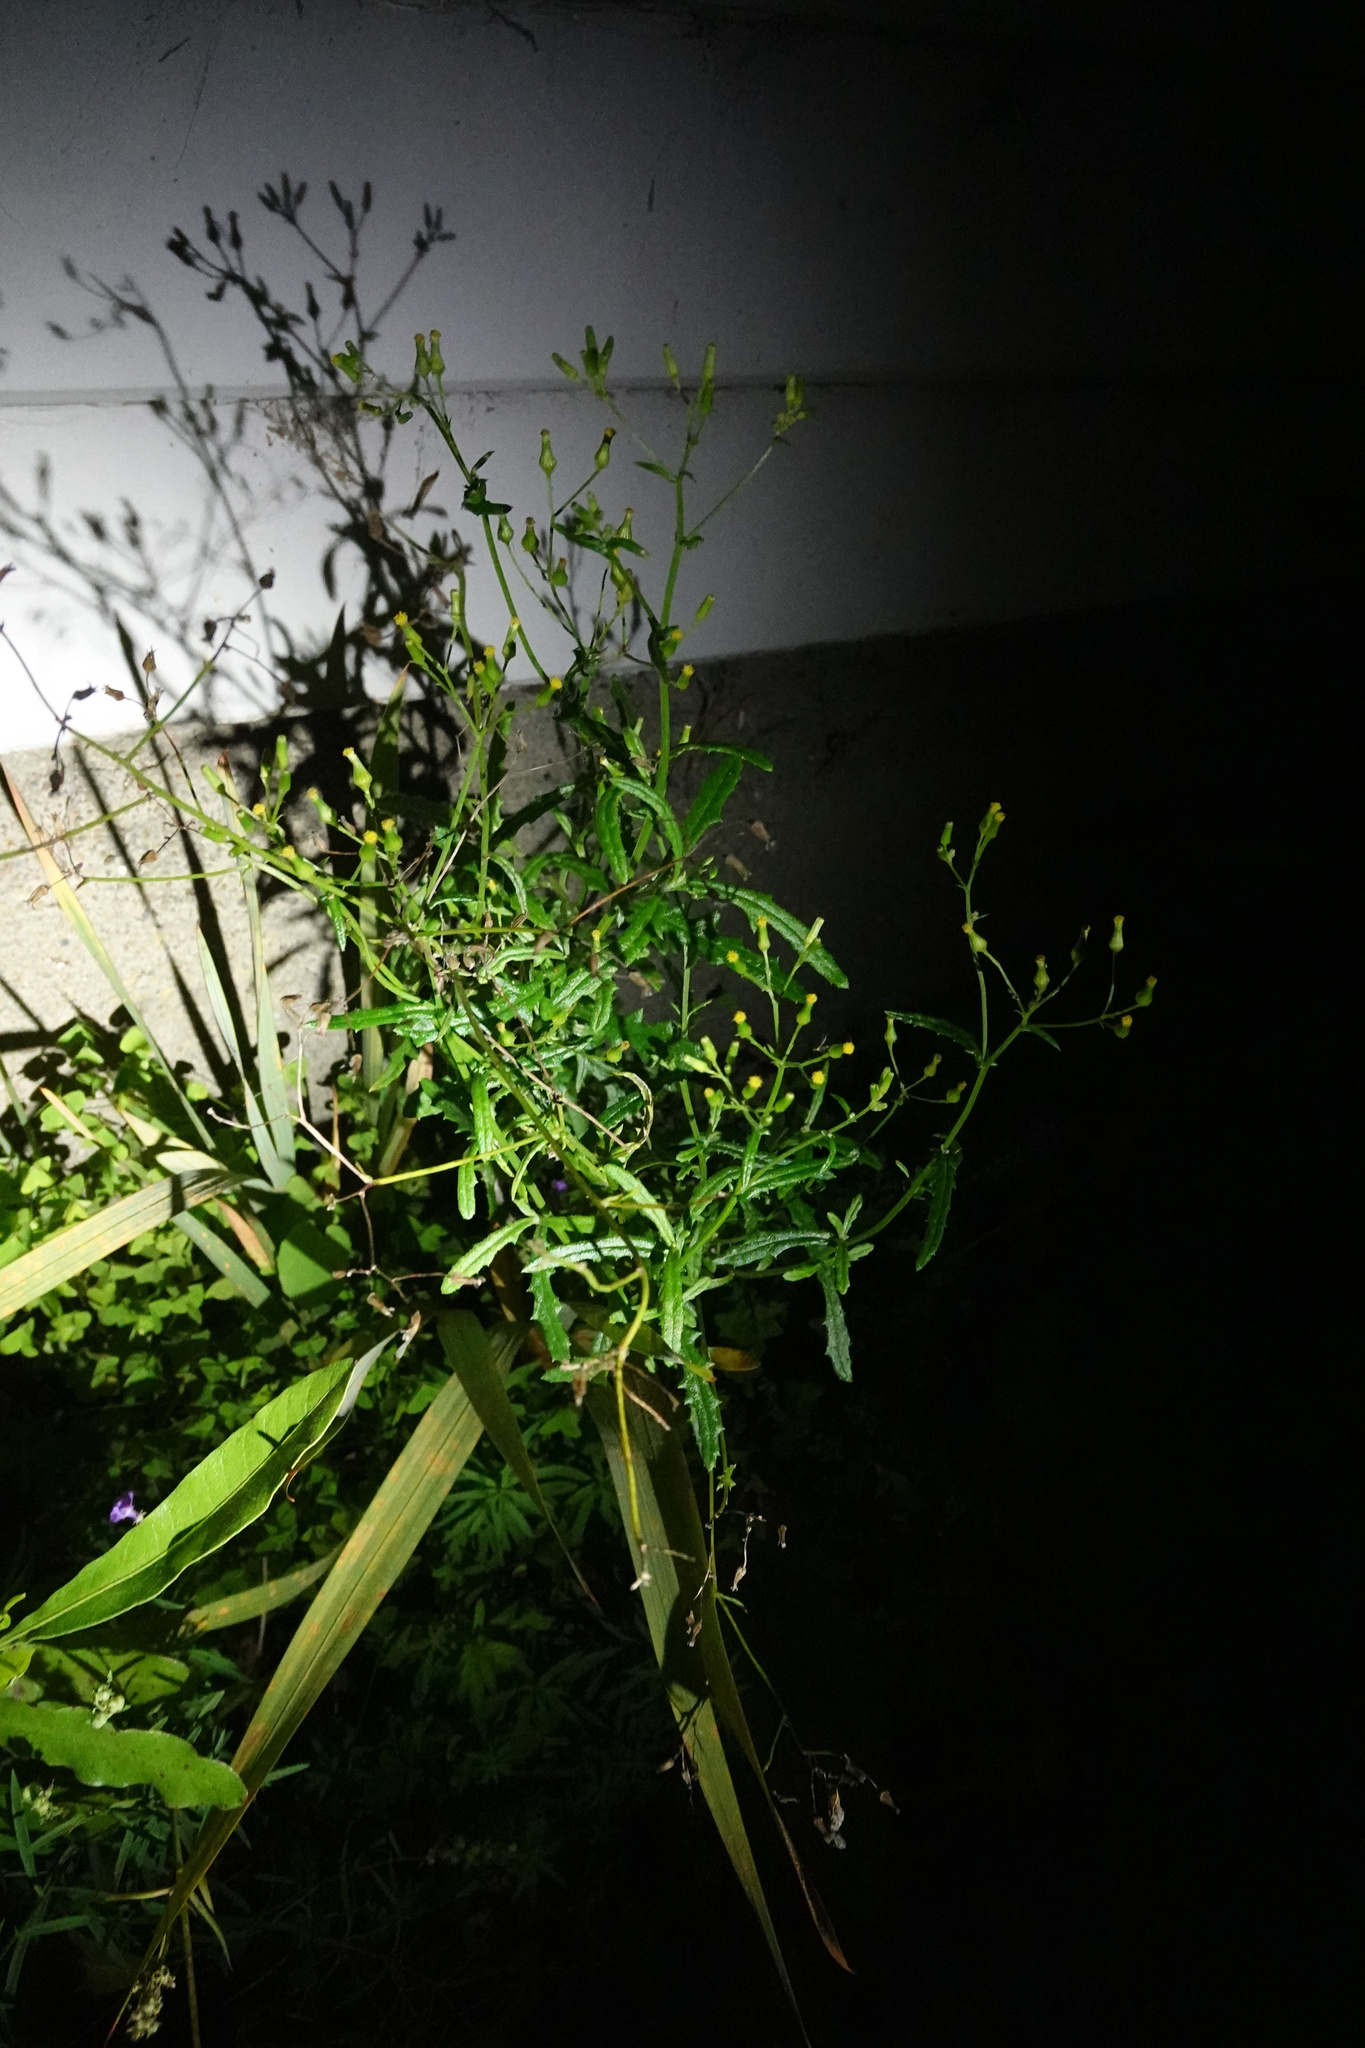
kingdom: Plantae
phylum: Tracheophyta
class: Magnoliopsida
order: Asterales
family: Asteraceae
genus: Senecio
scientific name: Senecio hispidulus
